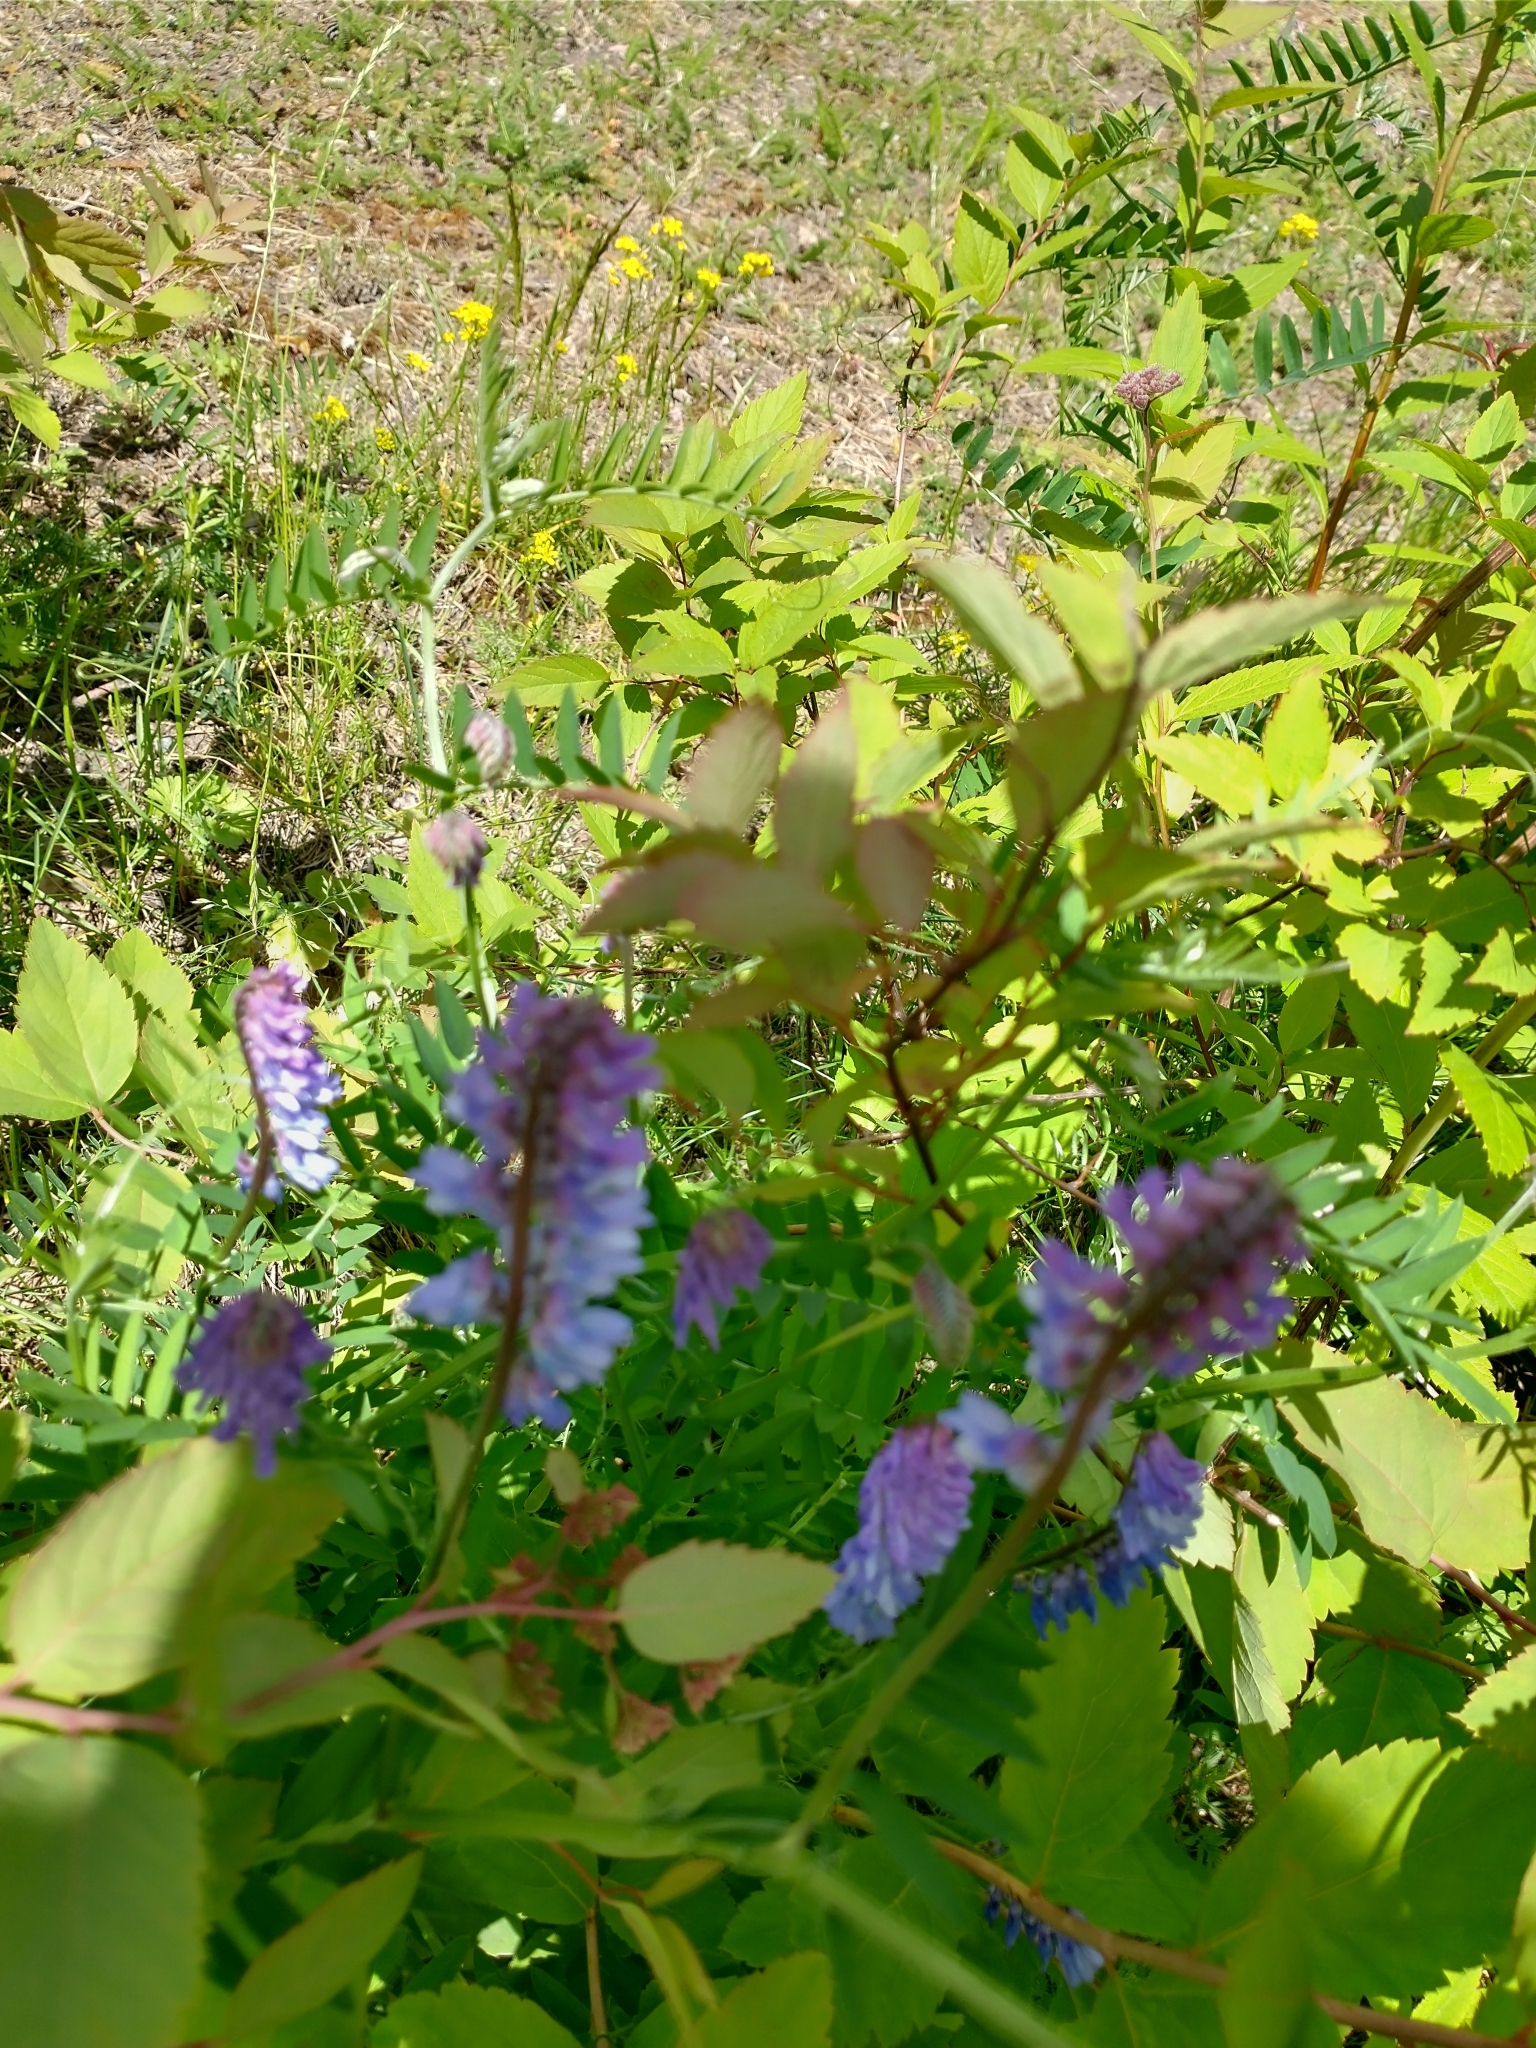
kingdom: Plantae
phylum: Tracheophyta
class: Magnoliopsida
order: Fabales
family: Fabaceae
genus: Vicia
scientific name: Vicia cracca
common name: Bird vetch
